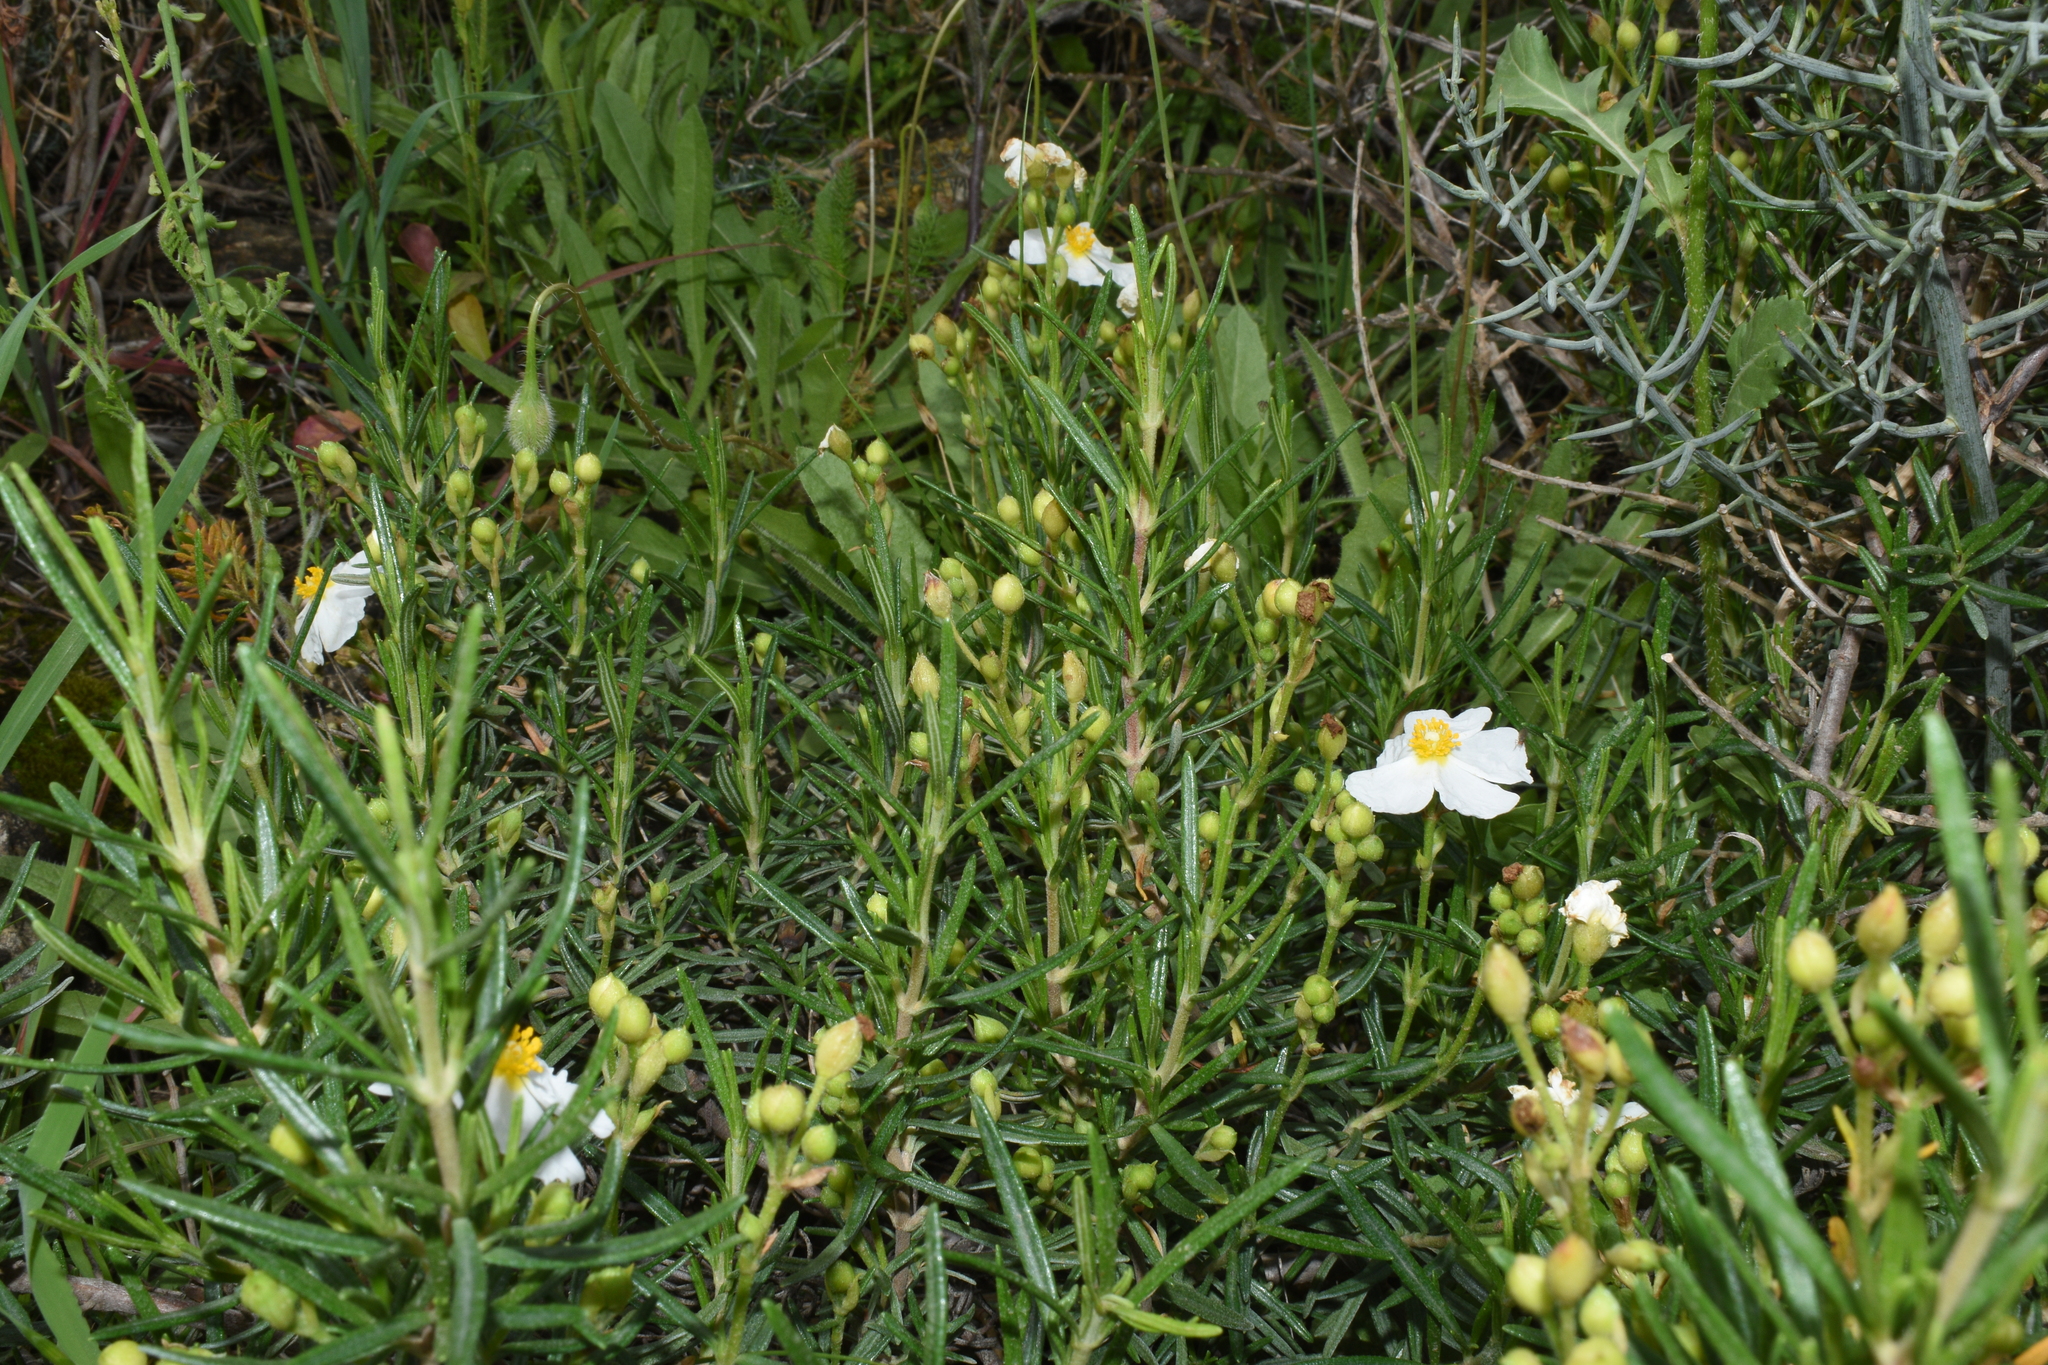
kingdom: Plantae
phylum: Tracheophyta
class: Magnoliopsida
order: Malvales
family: Cistaceae
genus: Cistus
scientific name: Cistus clusii
